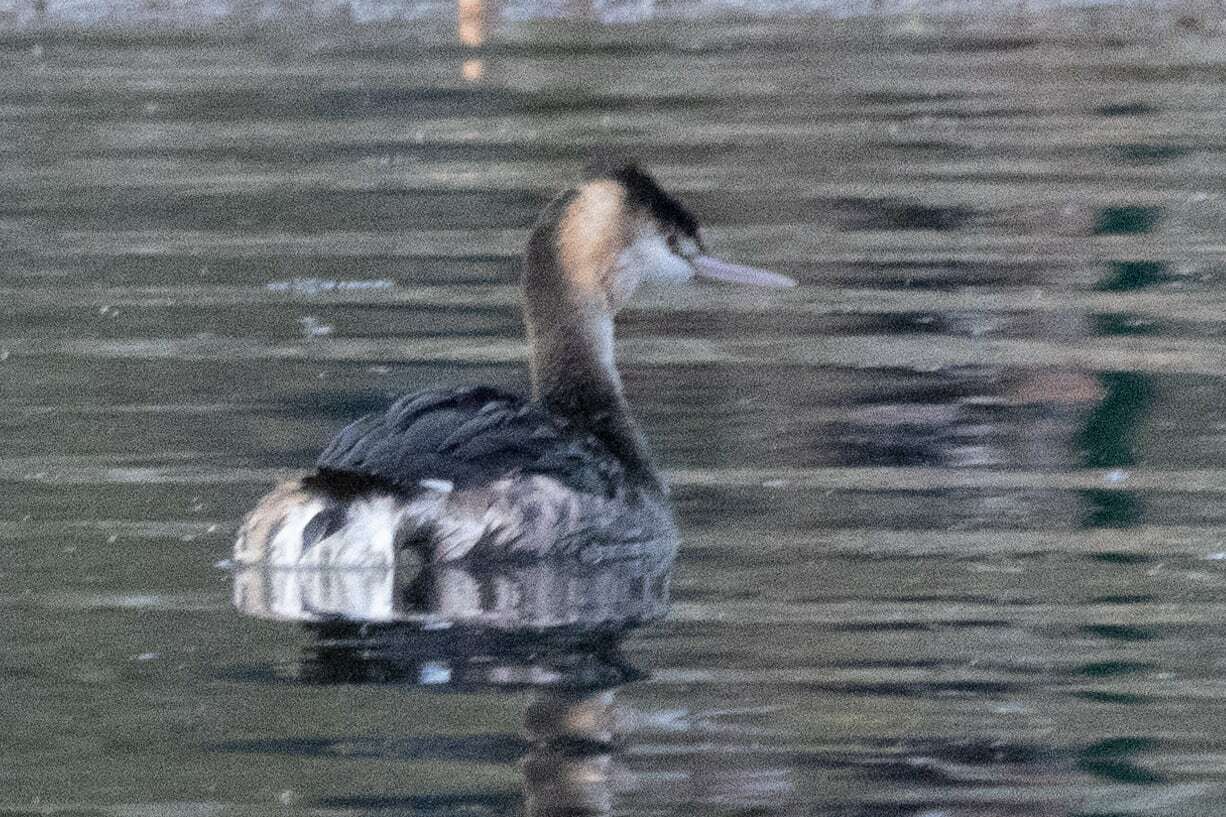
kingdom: Animalia
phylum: Chordata
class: Aves
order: Podicipediformes
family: Podicipedidae
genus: Podiceps
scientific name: Podiceps cristatus
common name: Great crested grebe
